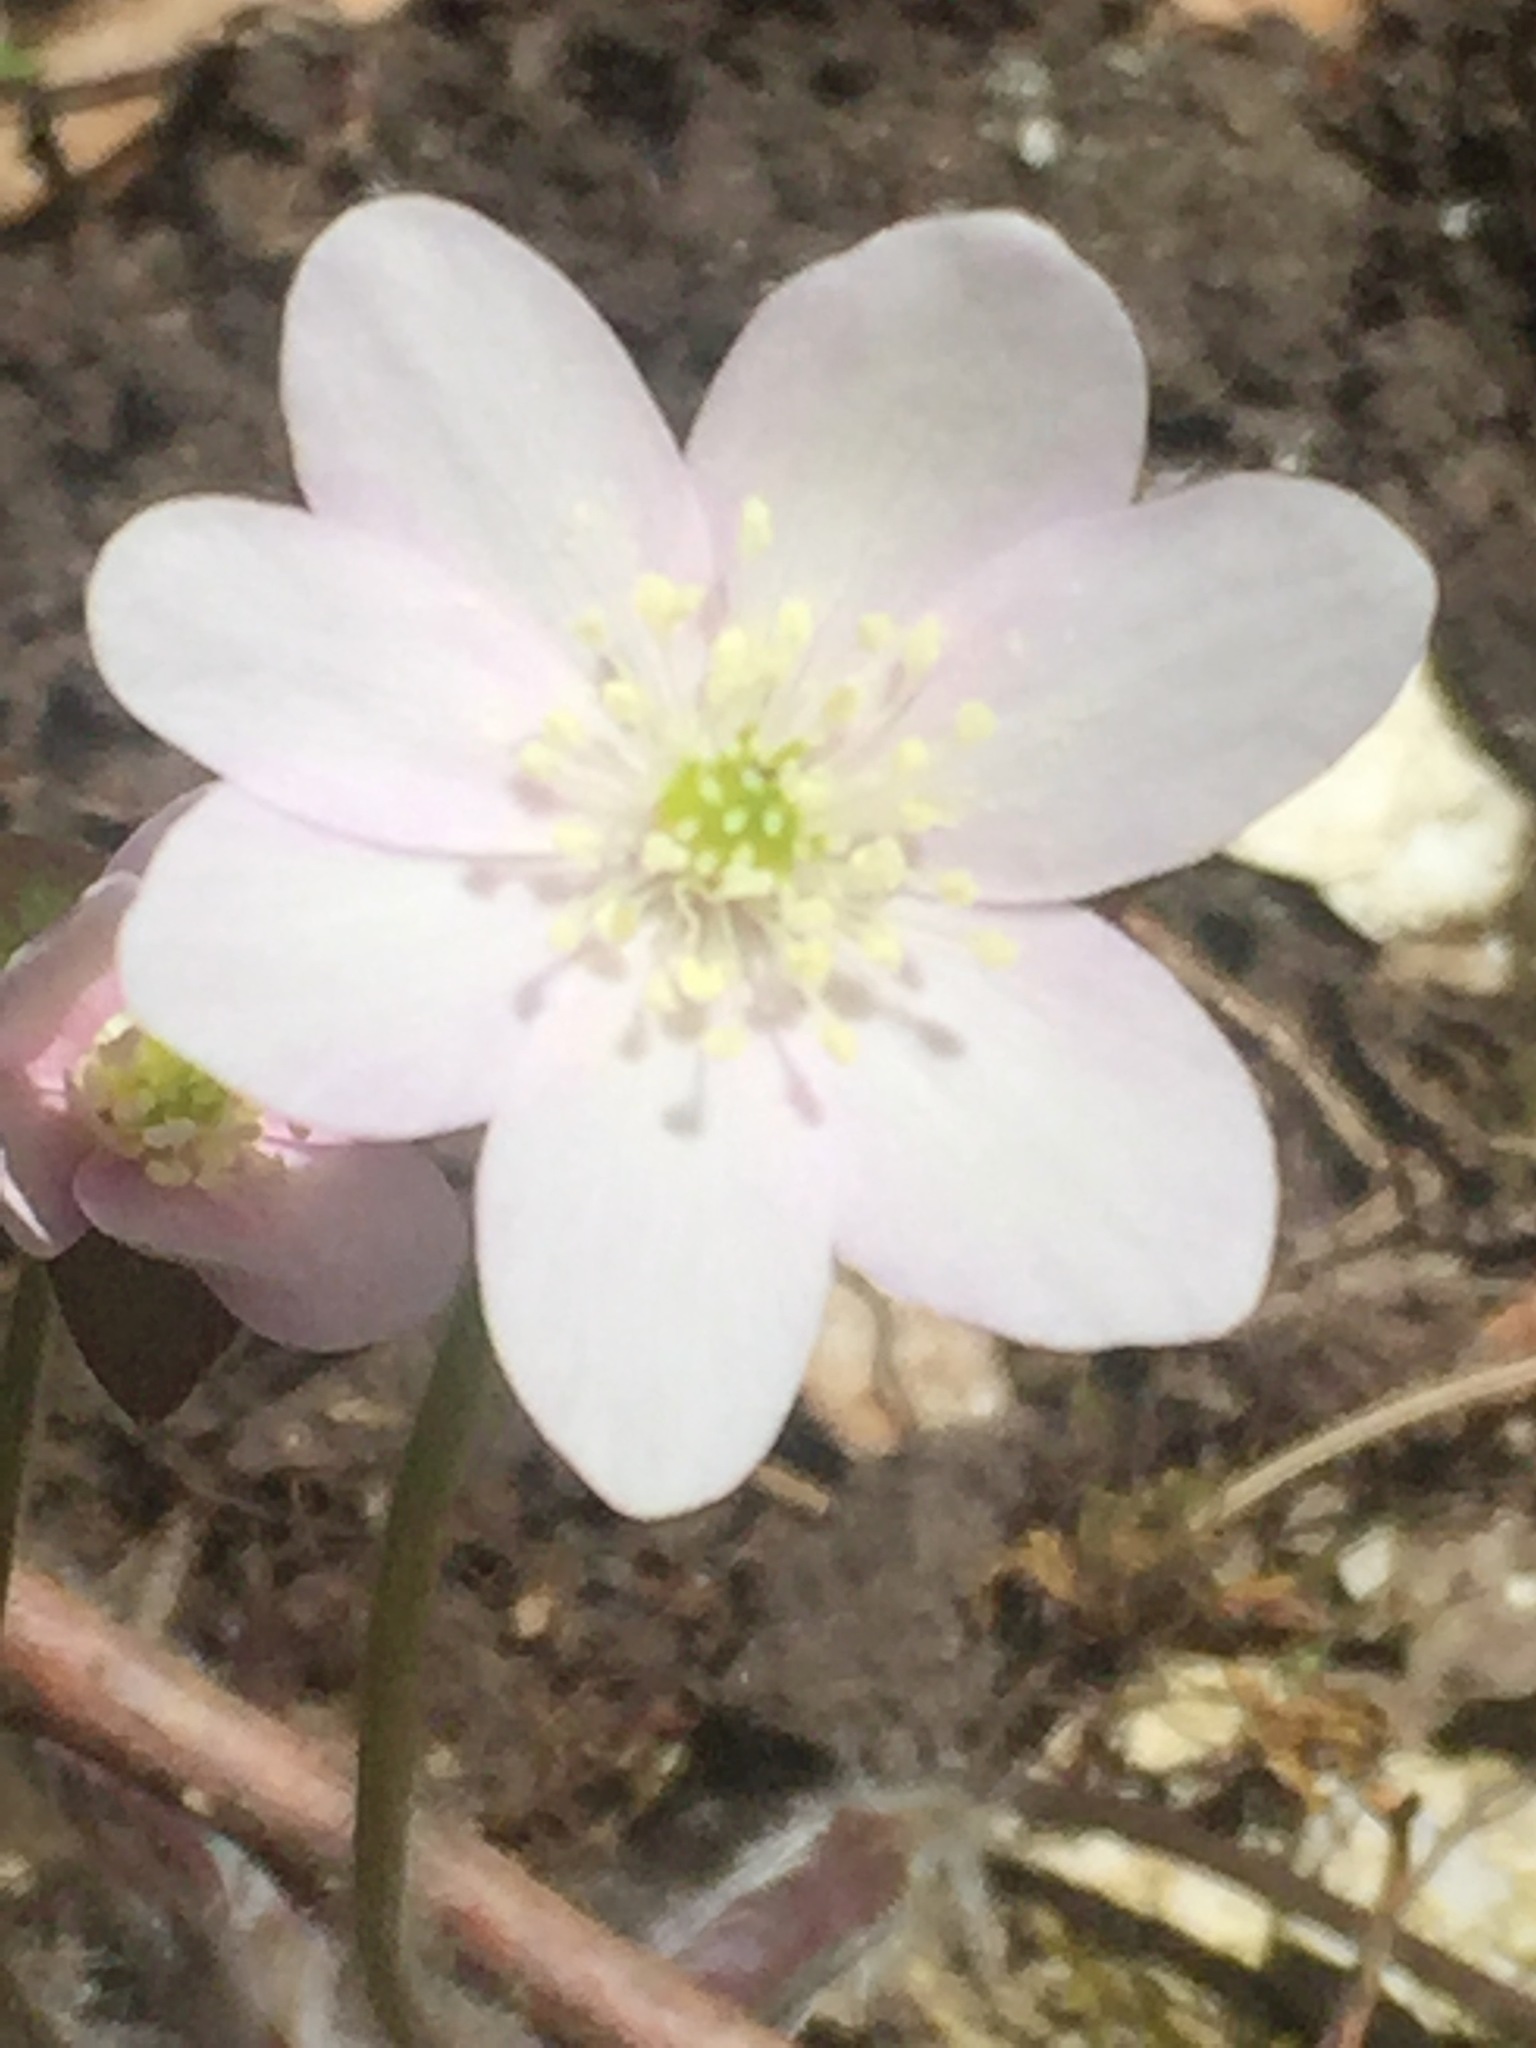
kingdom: Plantae
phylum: Tracheophyta
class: Magnoliopsida
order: Ranunculales
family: Ranunculaceae
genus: Hepatica
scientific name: Hepatica acutiloba
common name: Sharp-lobed hepatica
